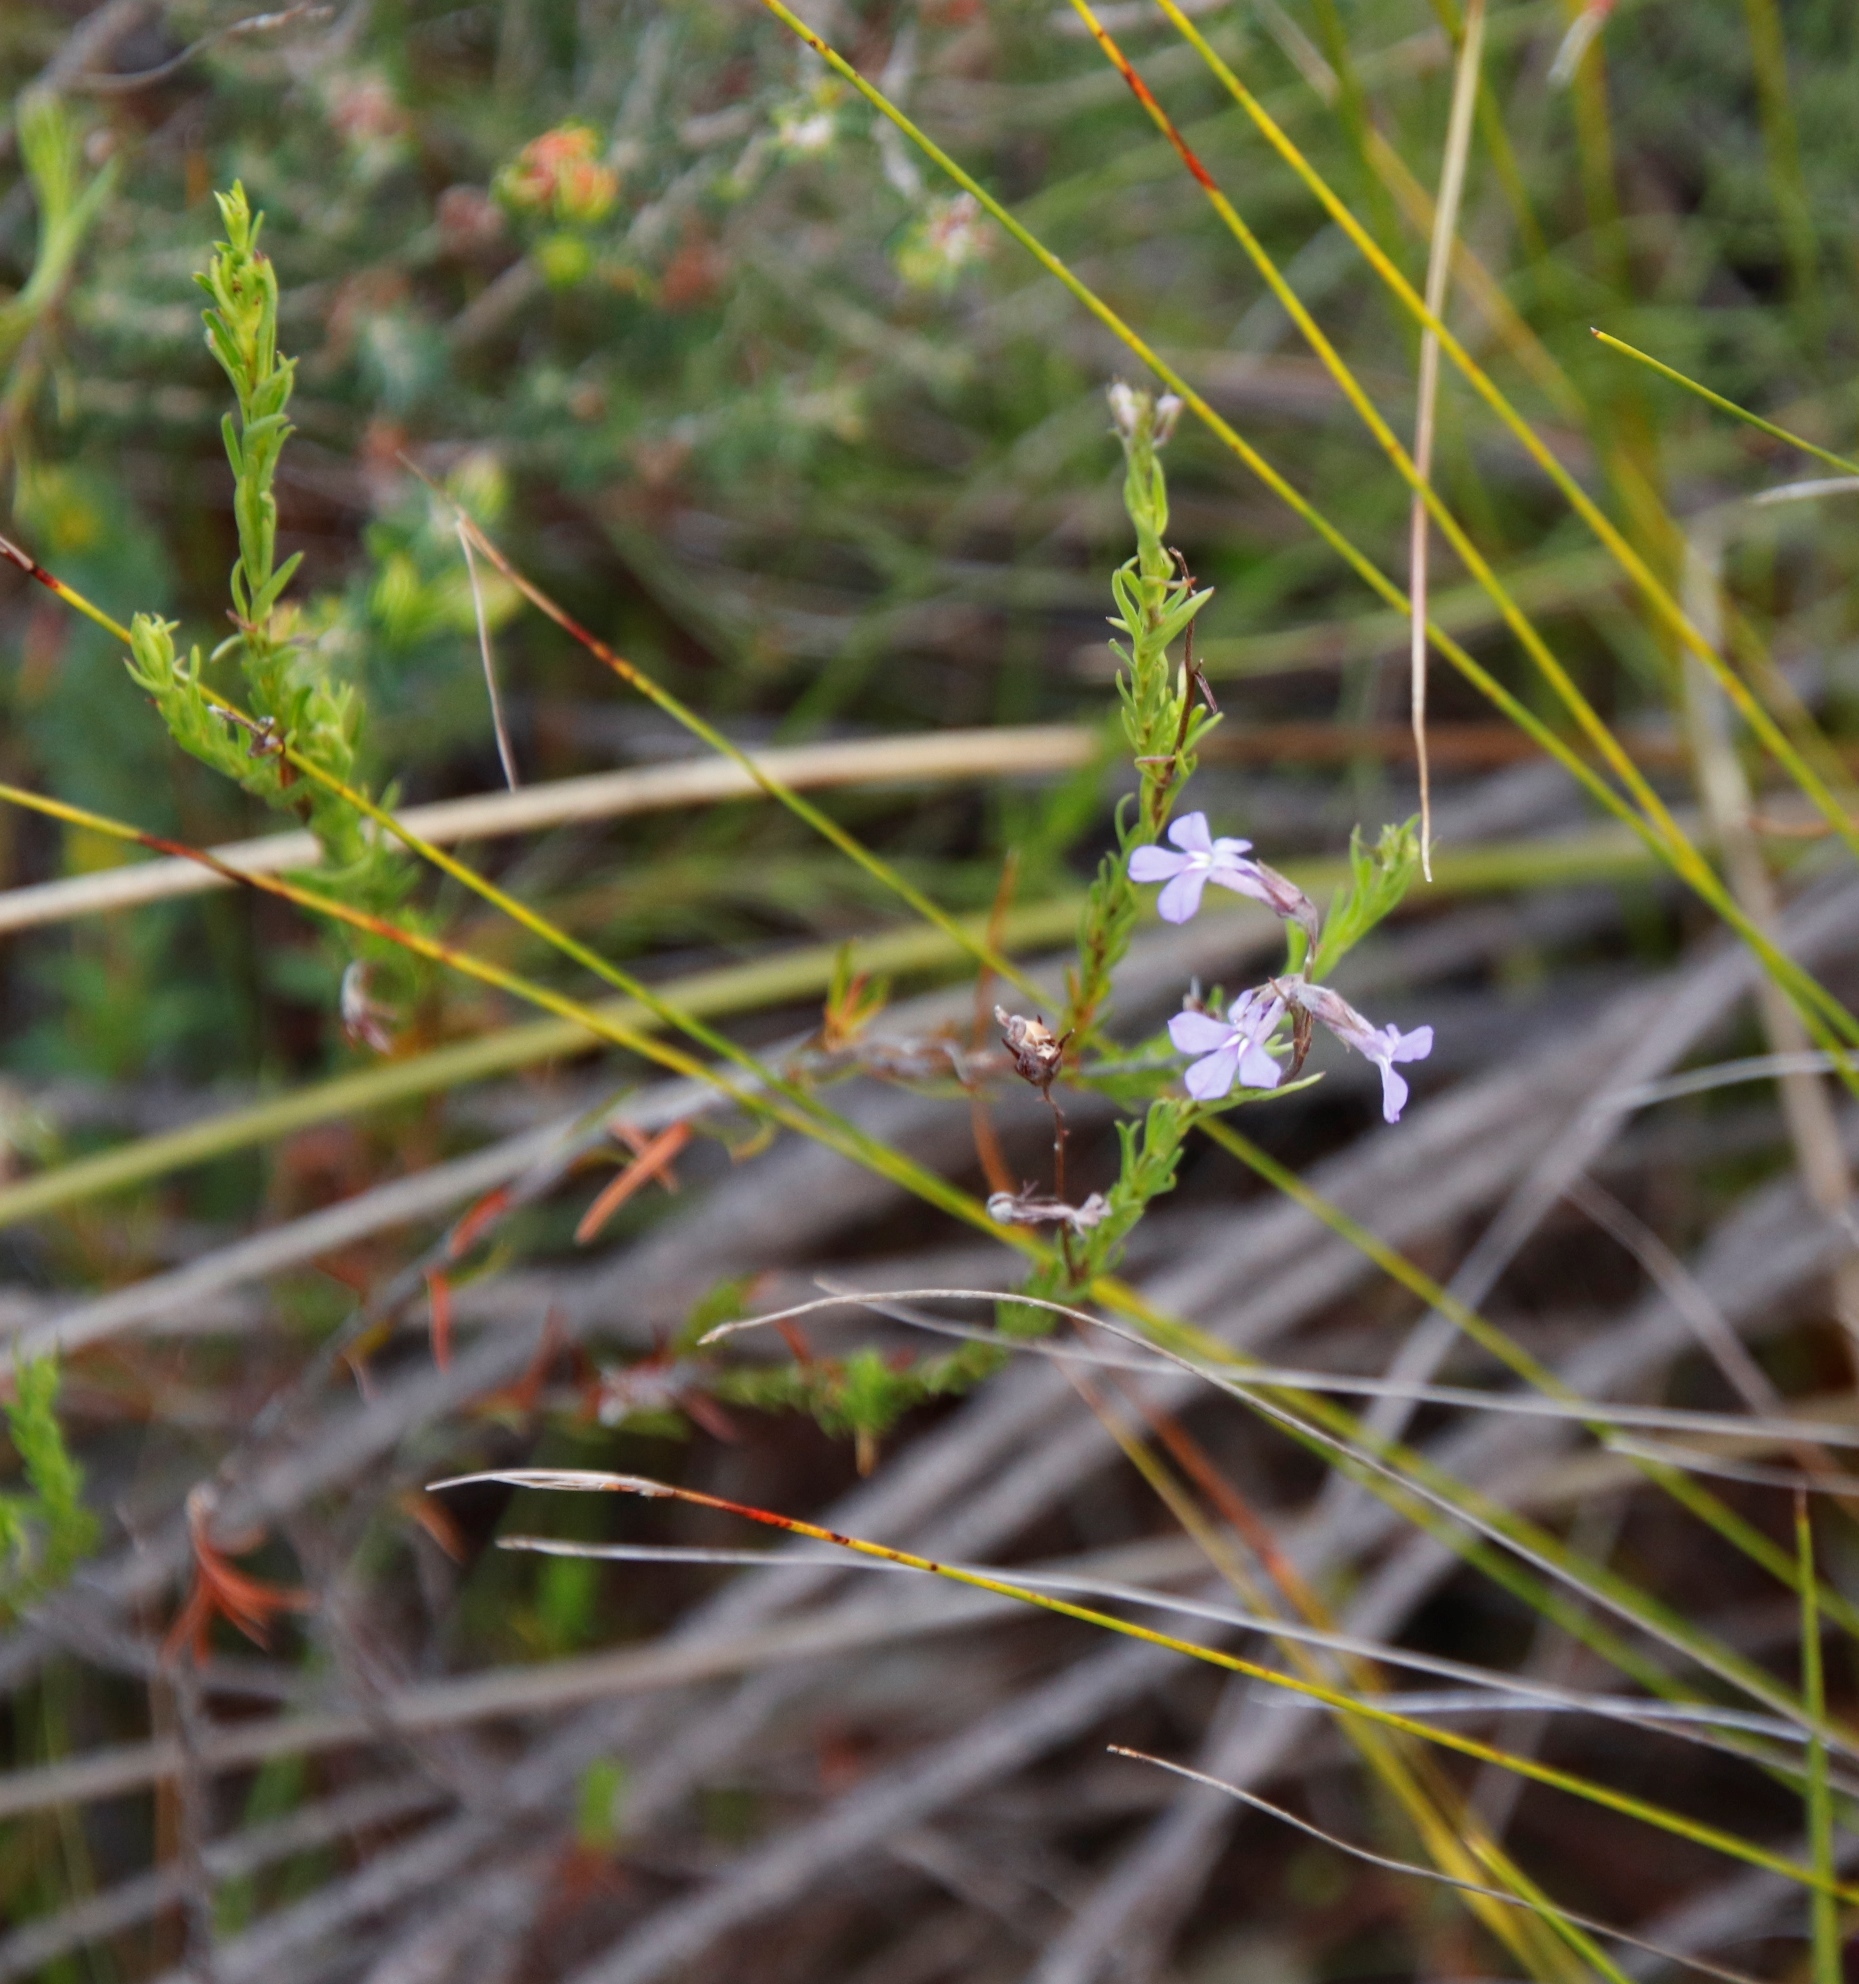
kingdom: Plantae
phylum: Tracheophyta
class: Magnoliopsida
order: Asterales
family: Campanulaceae
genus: Lobelia
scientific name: Lobelia pinifolia
